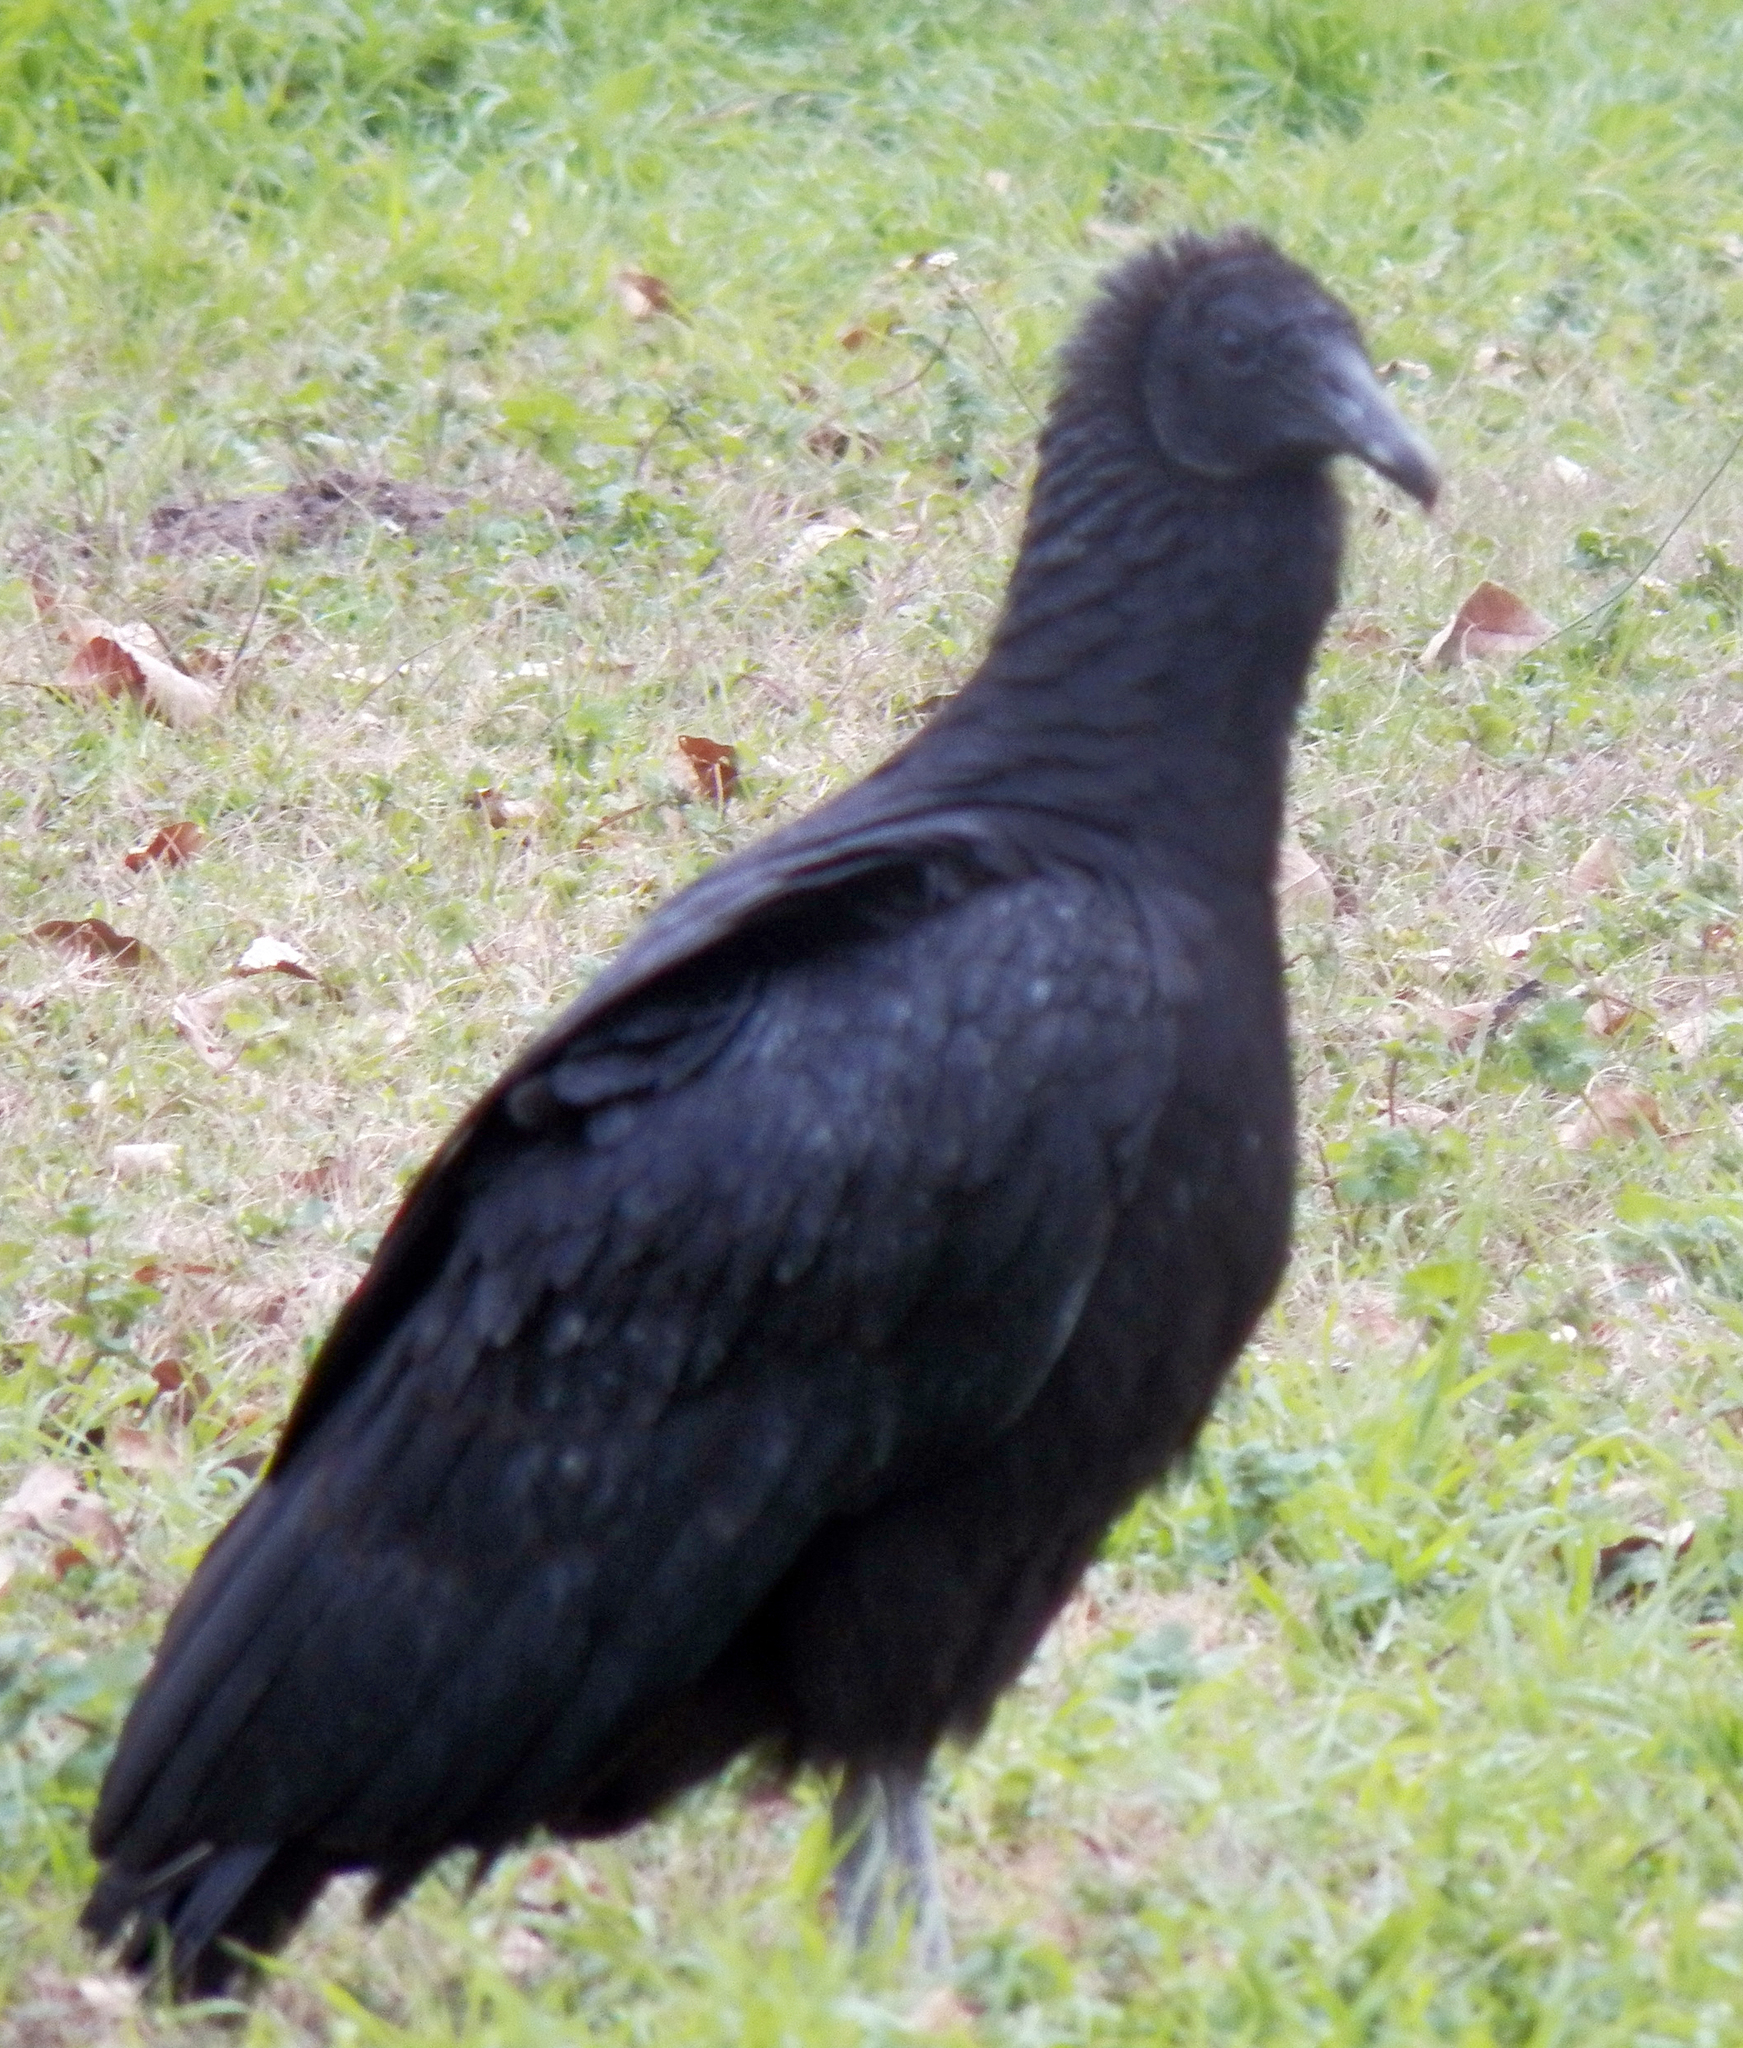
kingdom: Animalia
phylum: Chordata
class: Aves
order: Accipitriformes
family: Cathartidae
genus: Coragyps
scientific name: Coragyps atratus
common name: Black vulture
